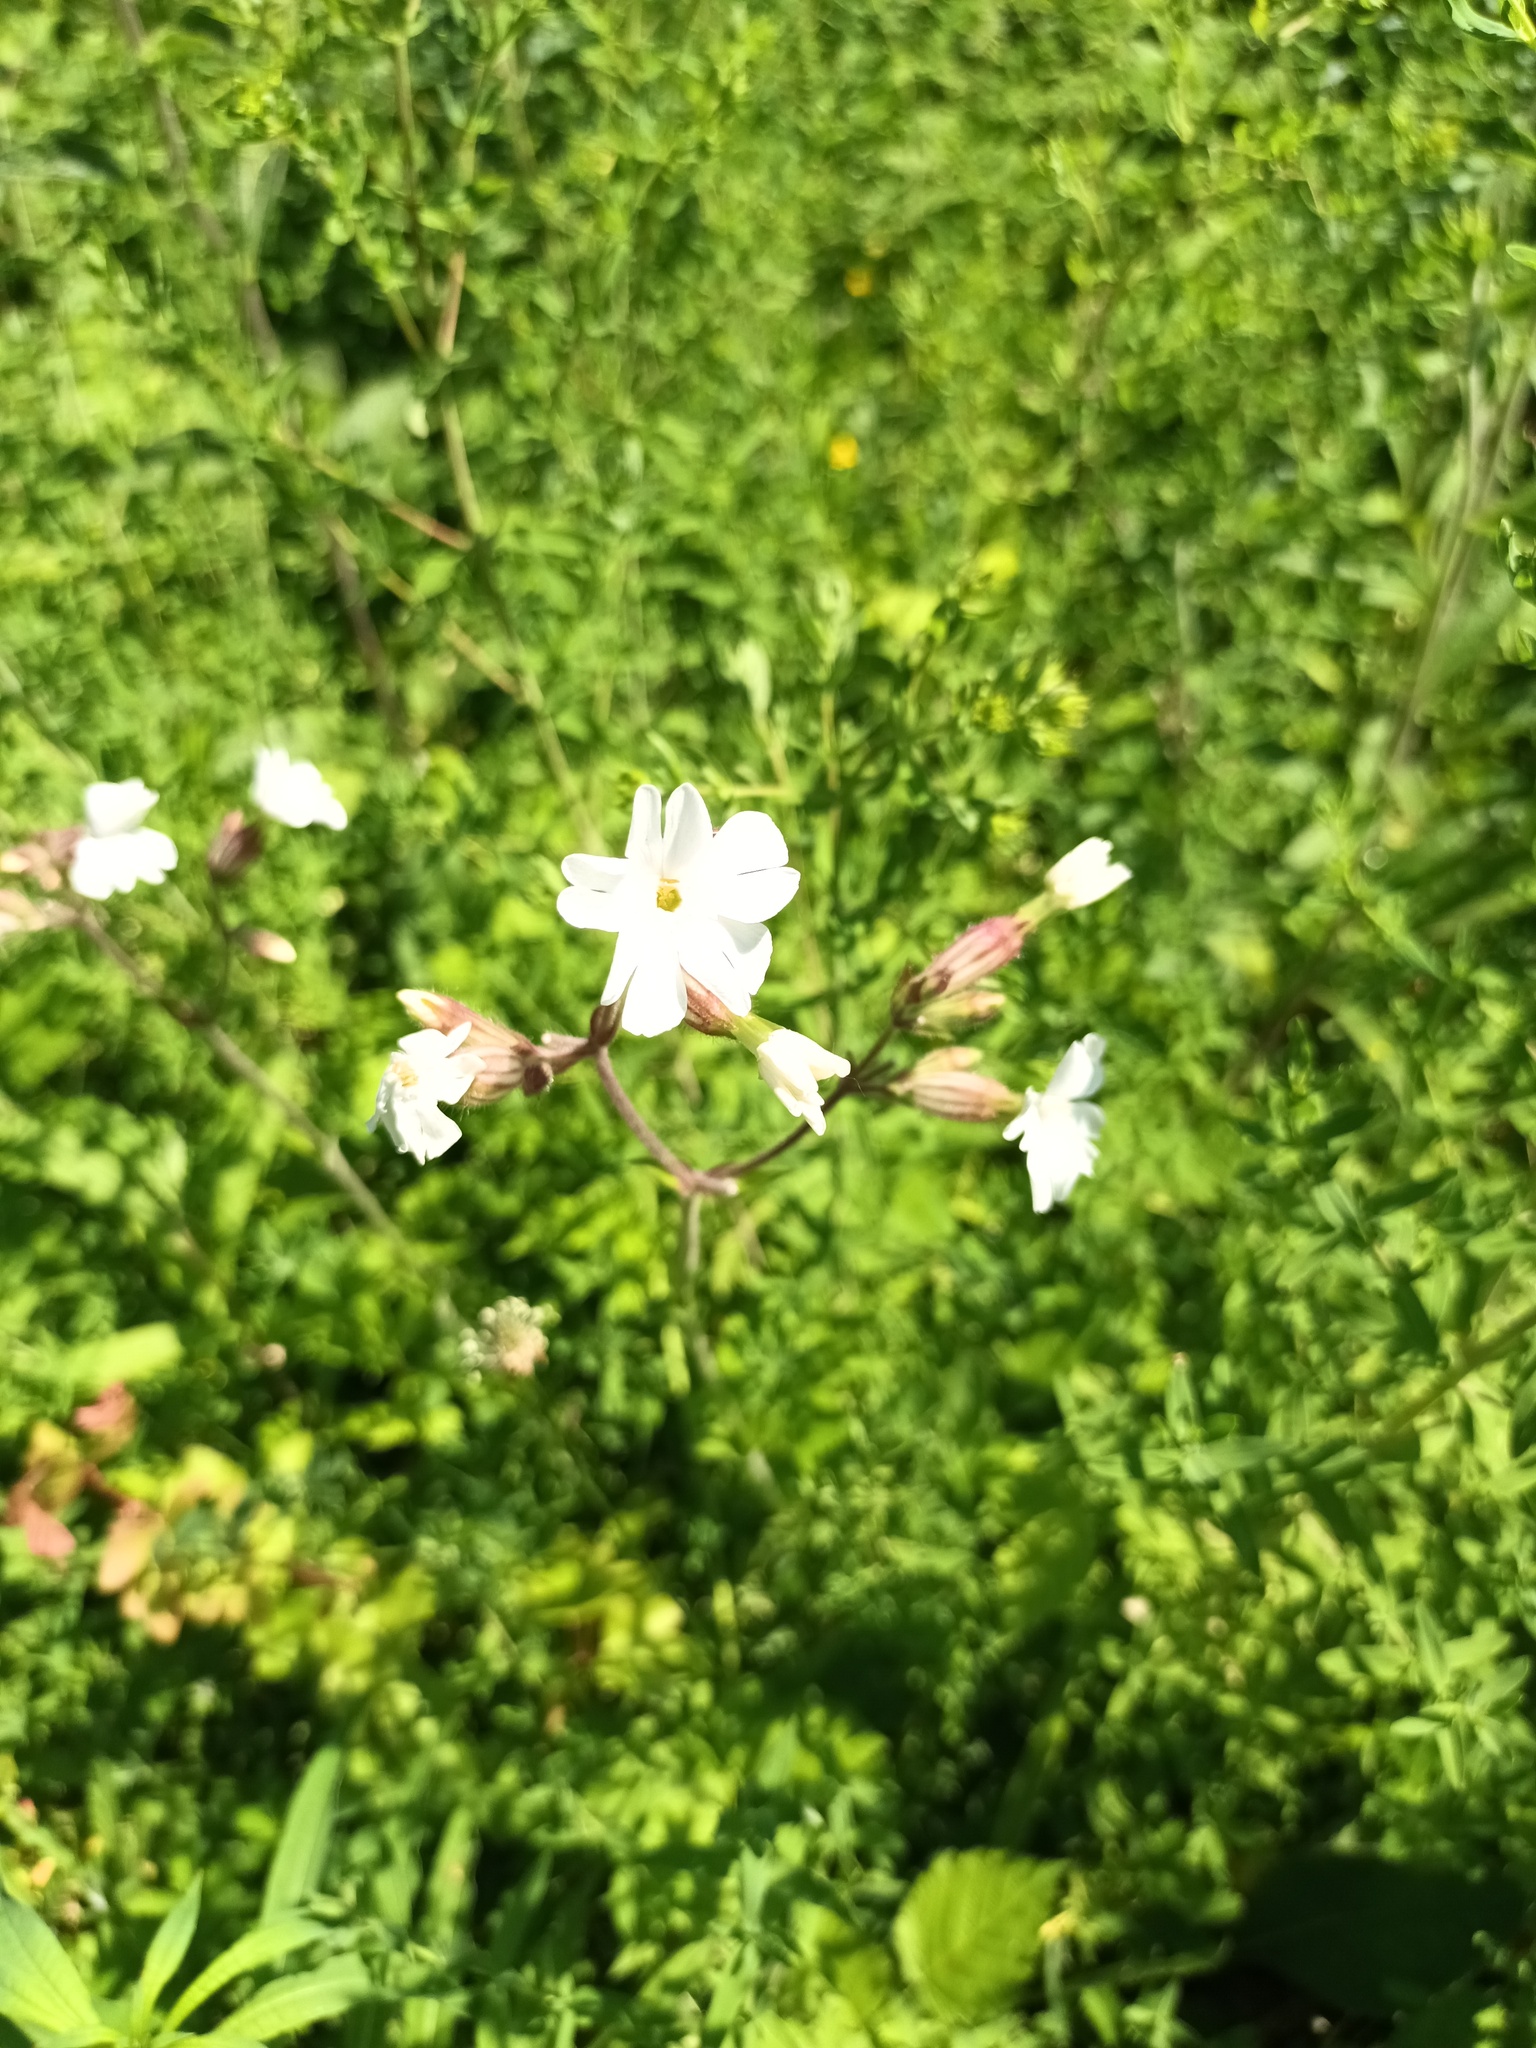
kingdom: Plantae
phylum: Tracheophyta
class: Magnoliopsida
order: Caryophyllales
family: Caryophyllaceae
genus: Silene
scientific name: Silene latifolia
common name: White campion
